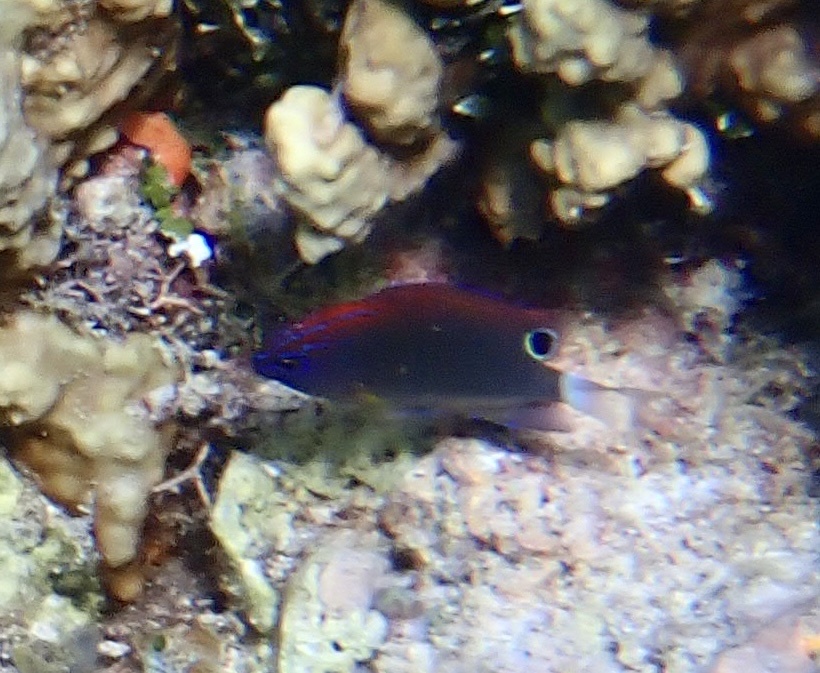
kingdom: Animalia
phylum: Chordata
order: Perciformes
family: Pomacentridae
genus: Pomacentrus
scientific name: Pomacentrus bankanensis
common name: Speckled damsel
